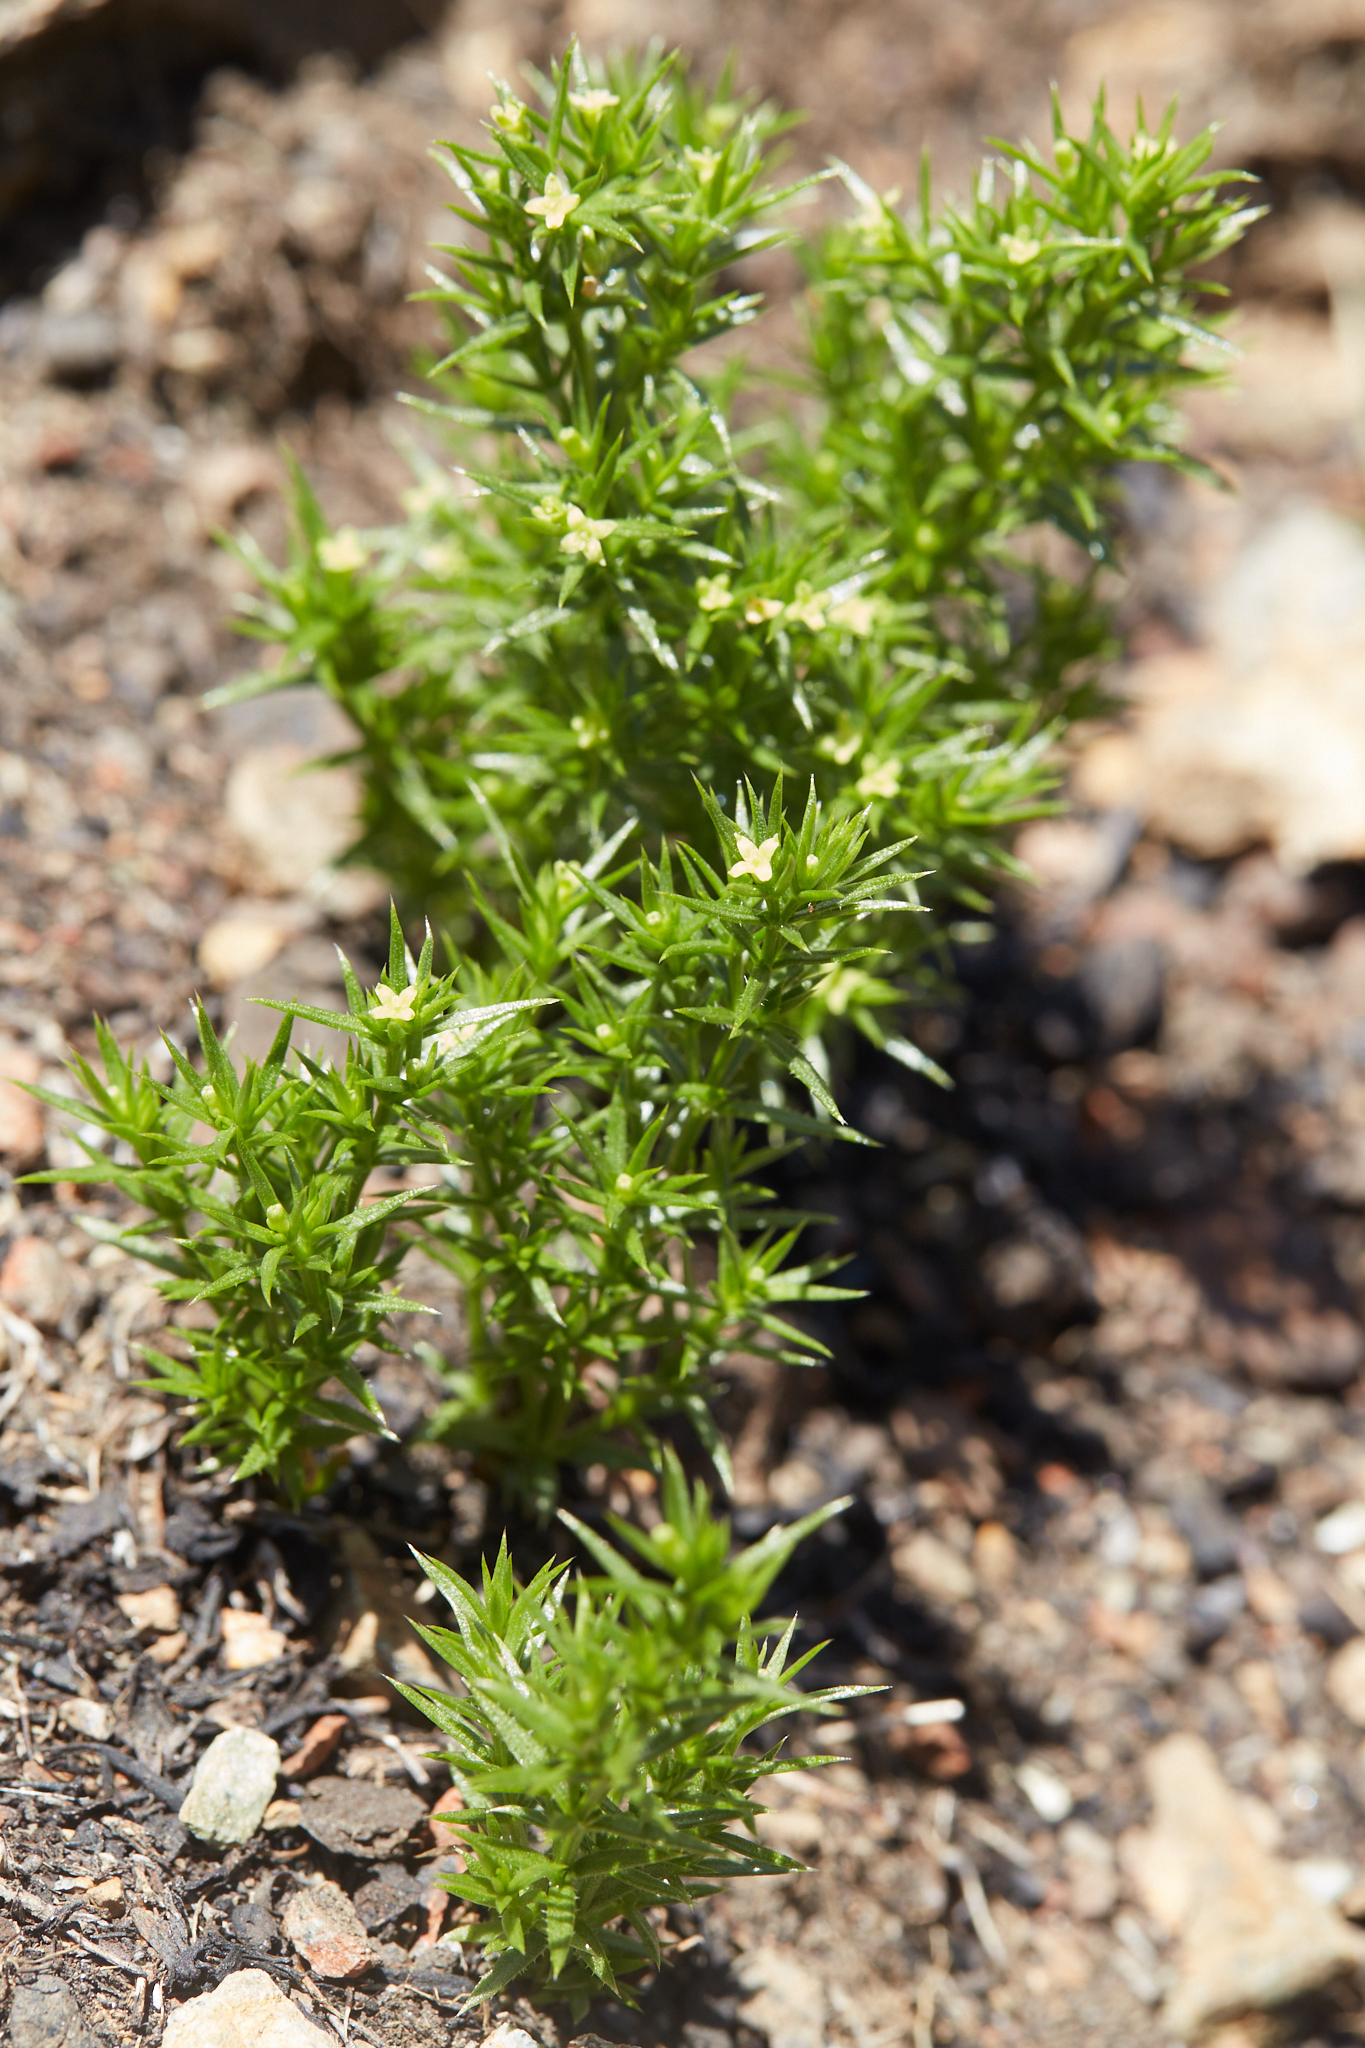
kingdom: Plantae
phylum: Tracheophyta
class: Magnoliopsida
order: Gentianales
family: Rubiaceae
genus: Galium
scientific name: Galium andrewsii
